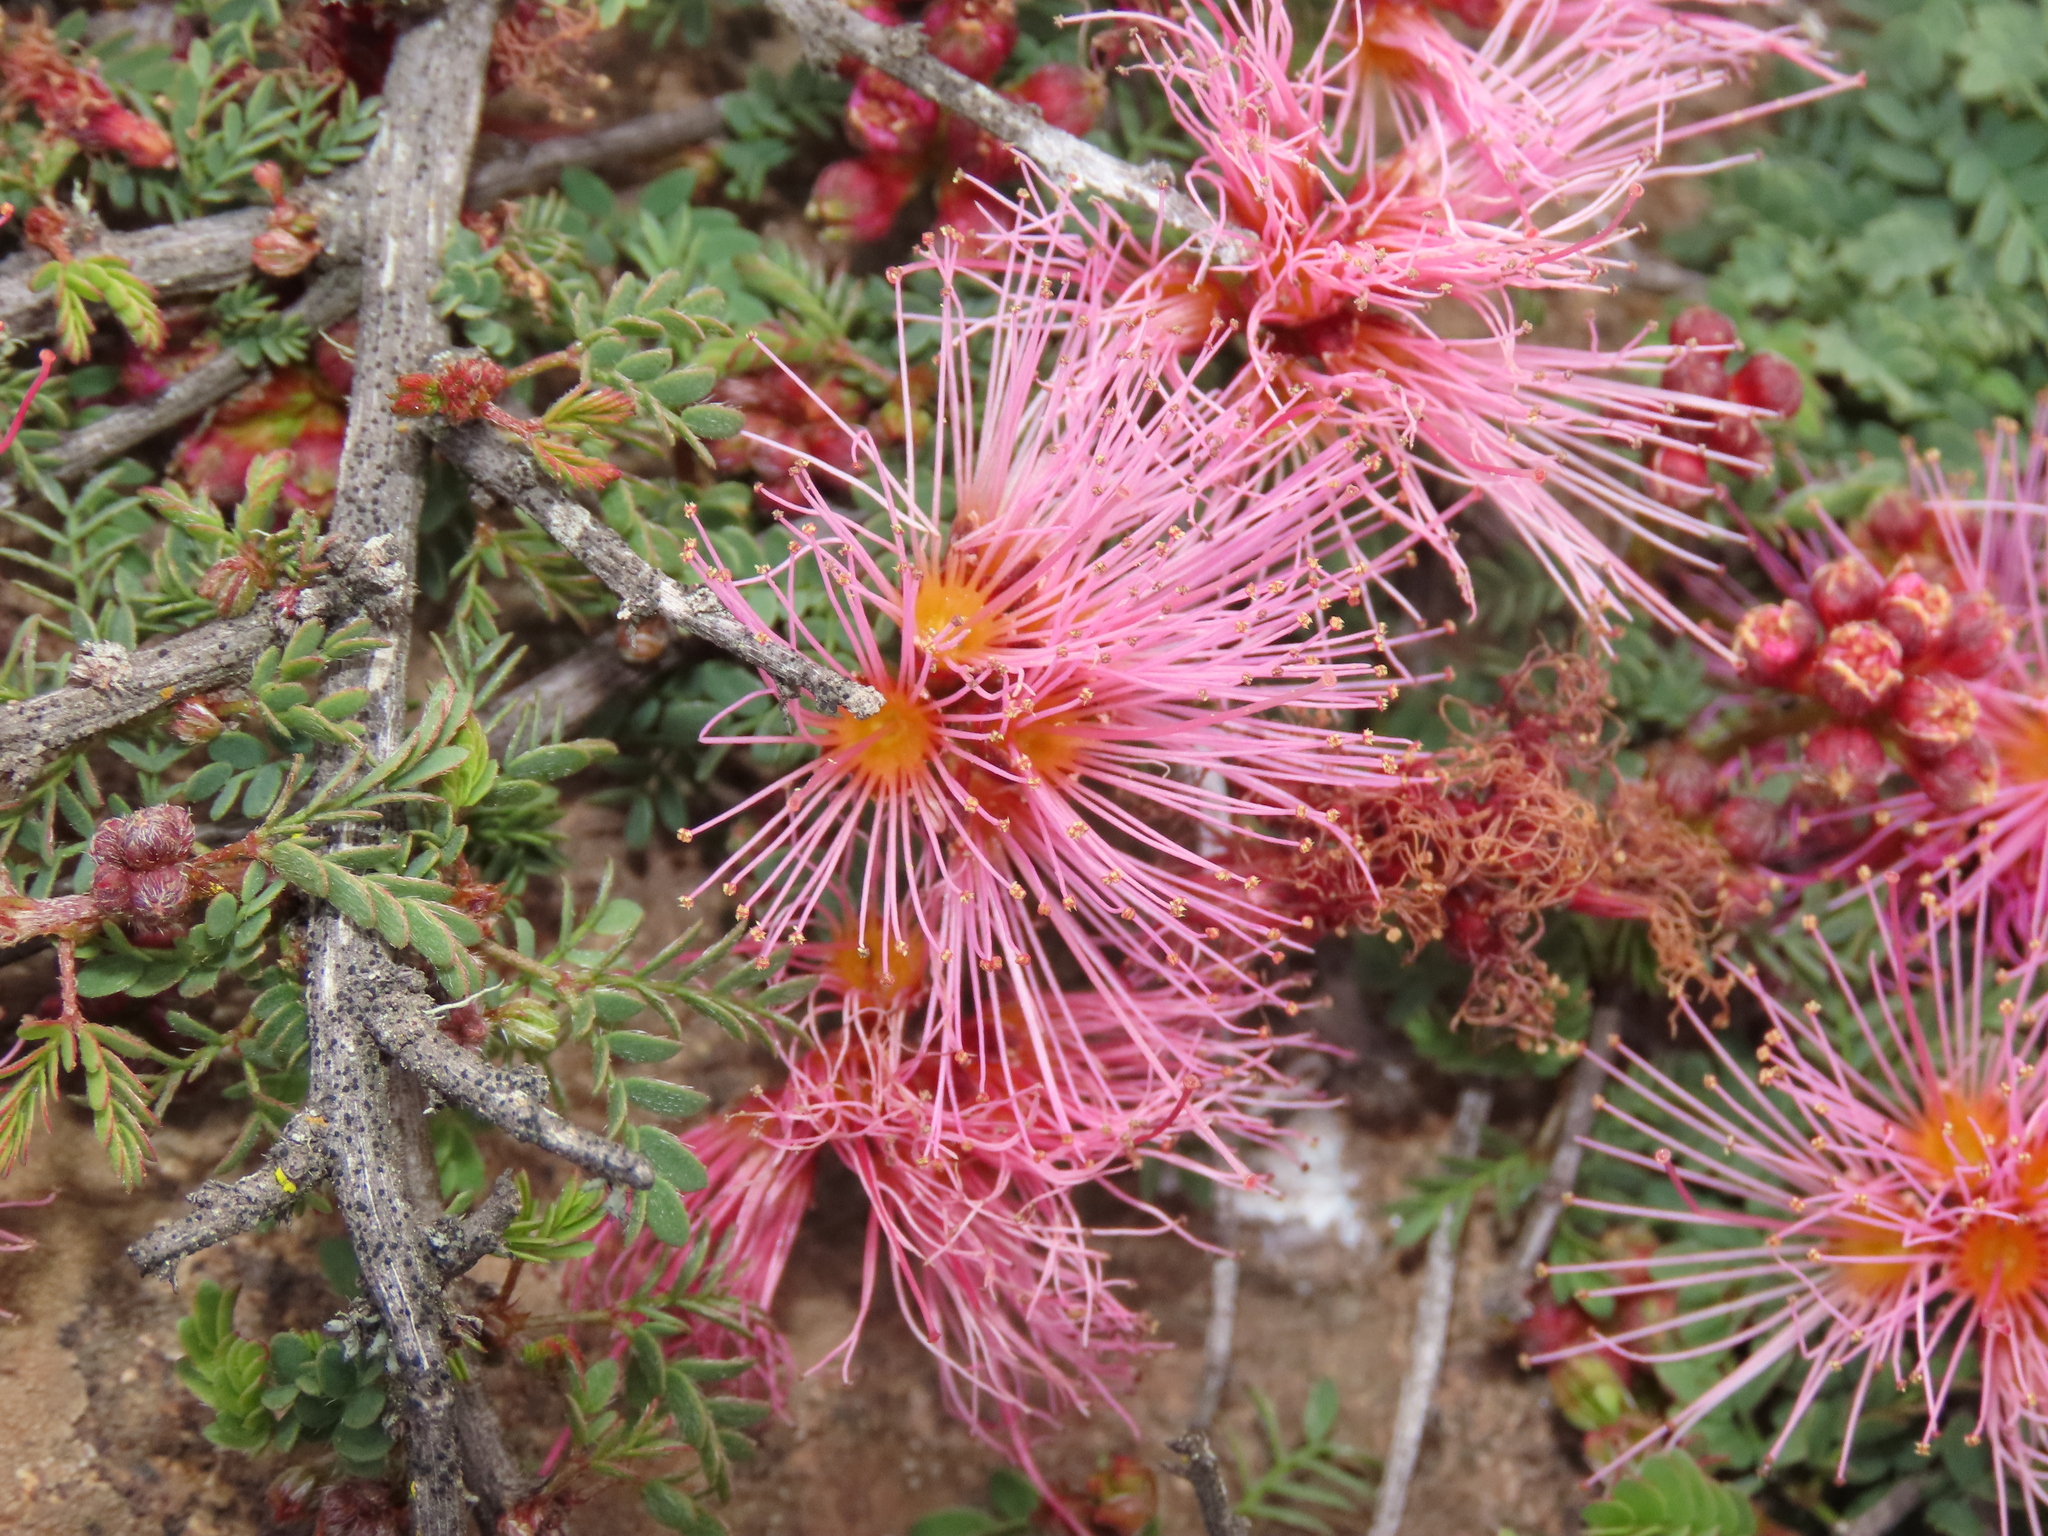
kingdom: Plantae
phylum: Tracheophyta
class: Magnoliopsida
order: Fabales
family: Fabaceae
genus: Calliandra
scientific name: Calliandra chilensis
